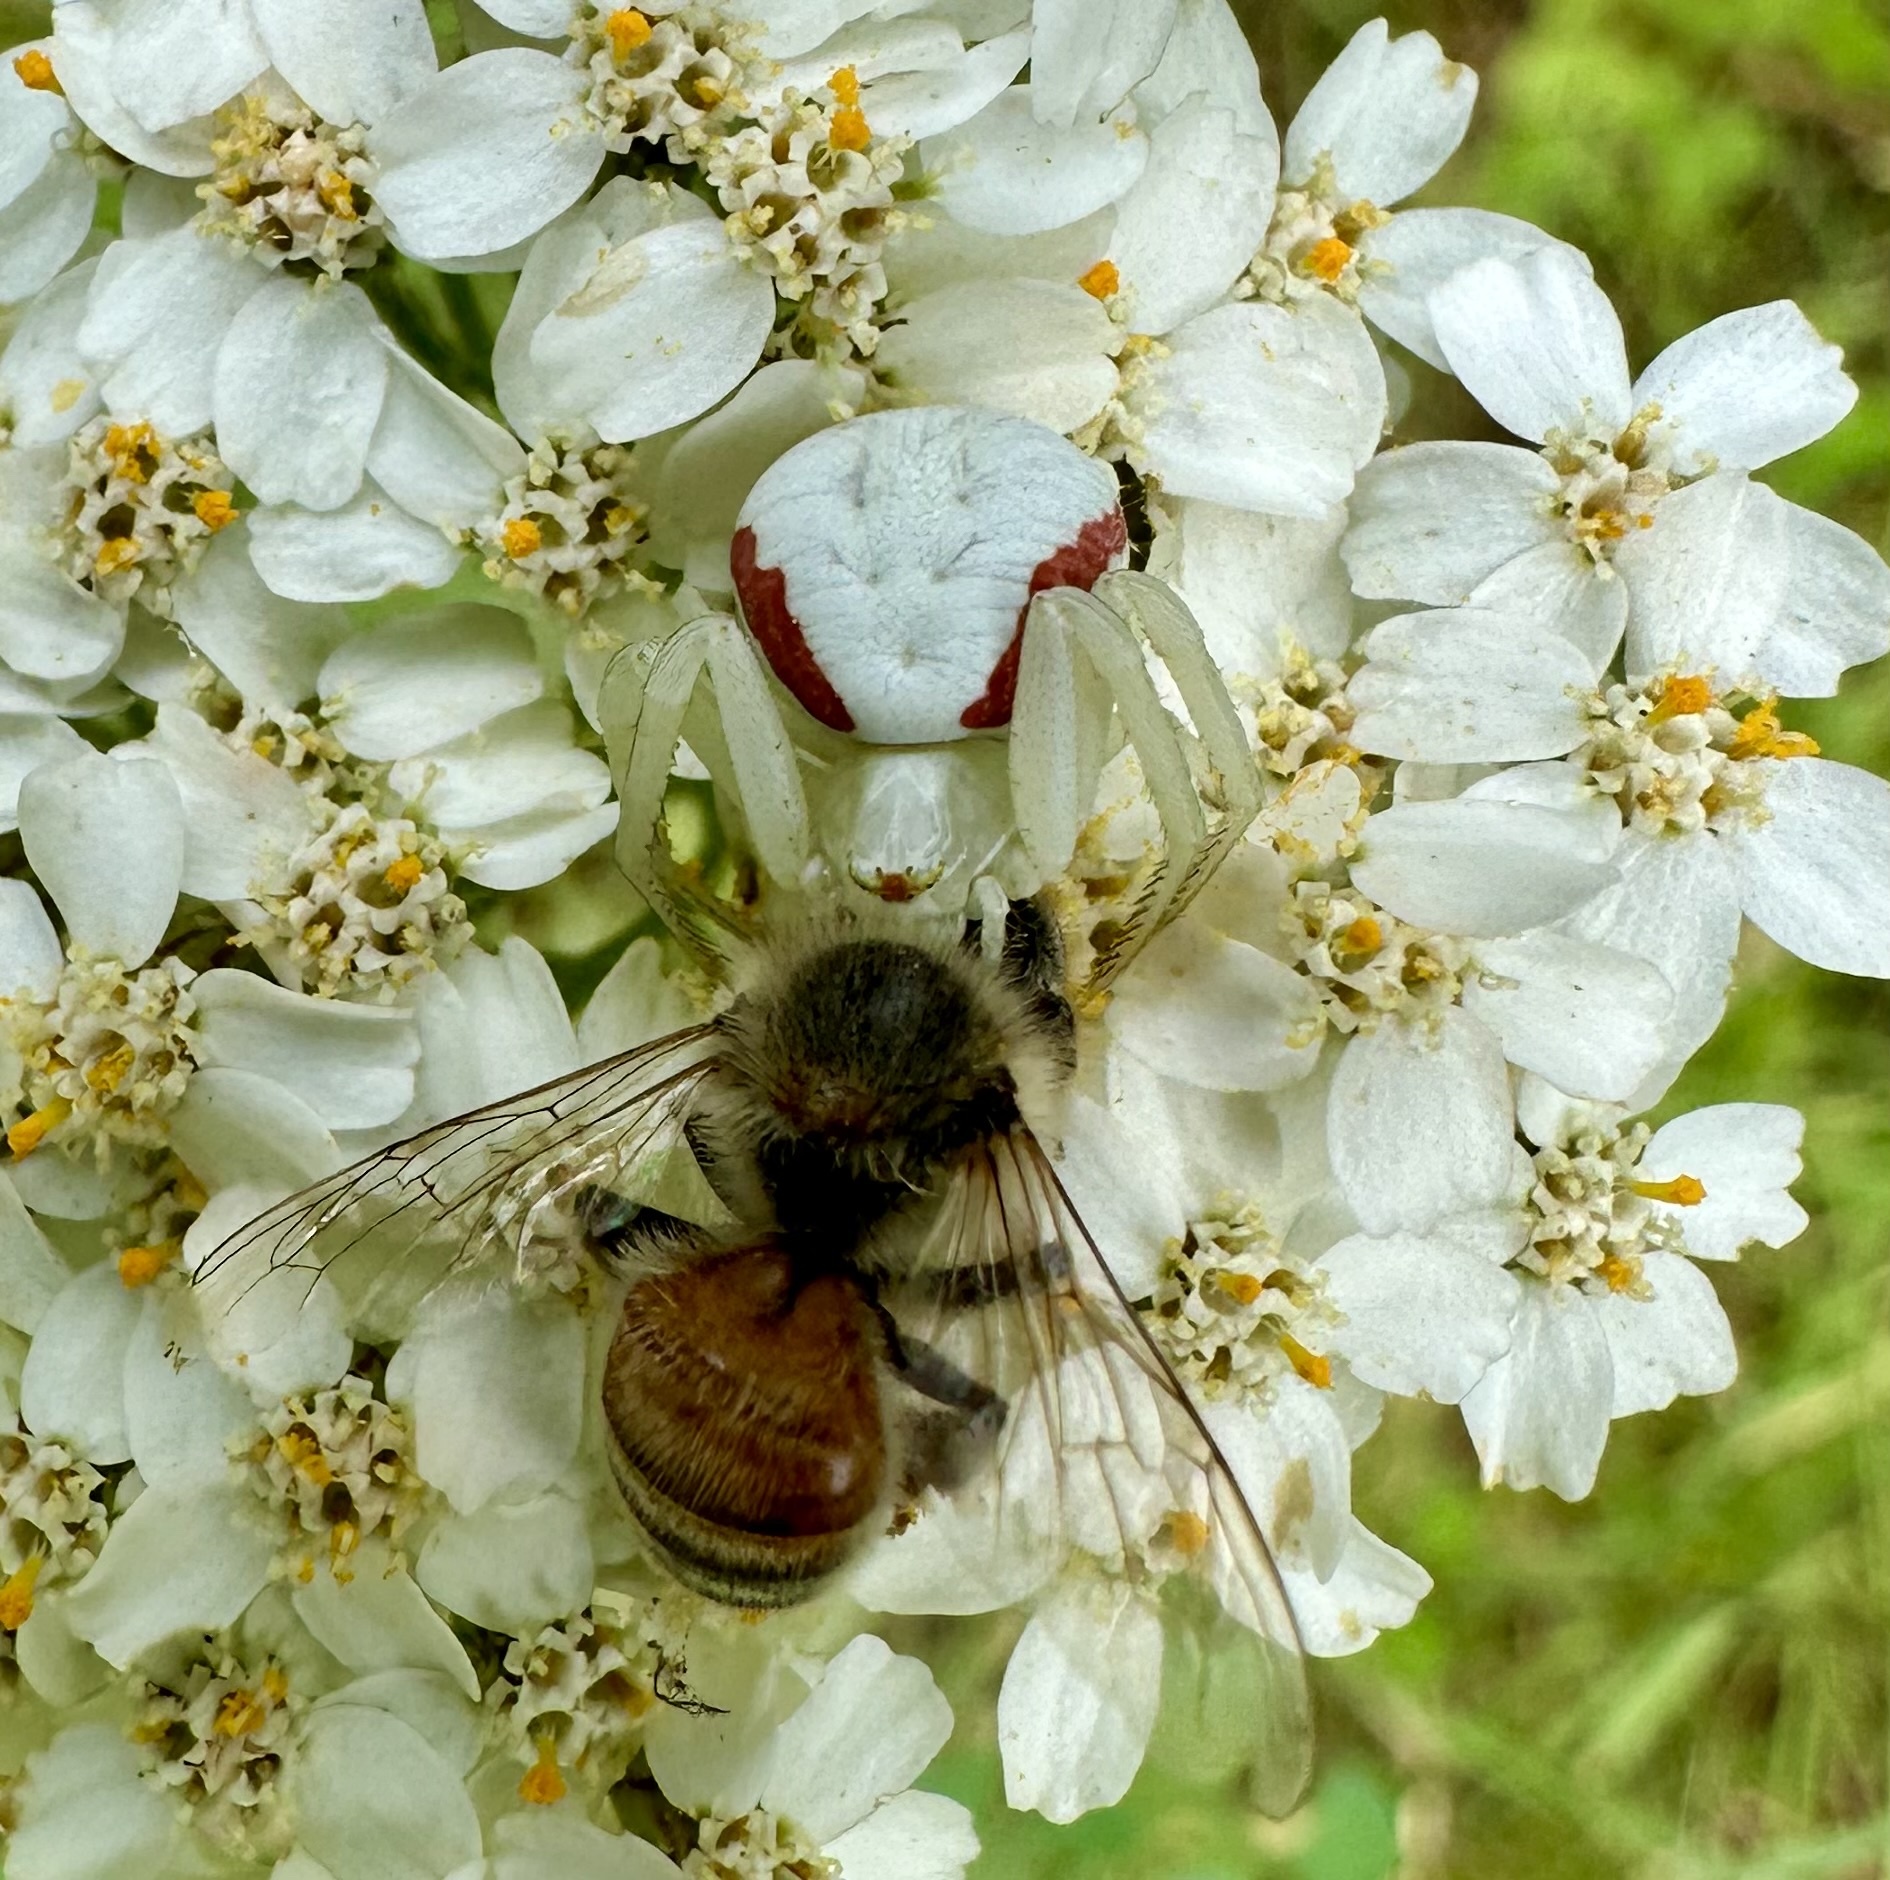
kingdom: Animalia
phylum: Arthropoda
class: Insecta
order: Hymenoptera
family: Apidae
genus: Apis
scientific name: Apis mellifera
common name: Honey bee
